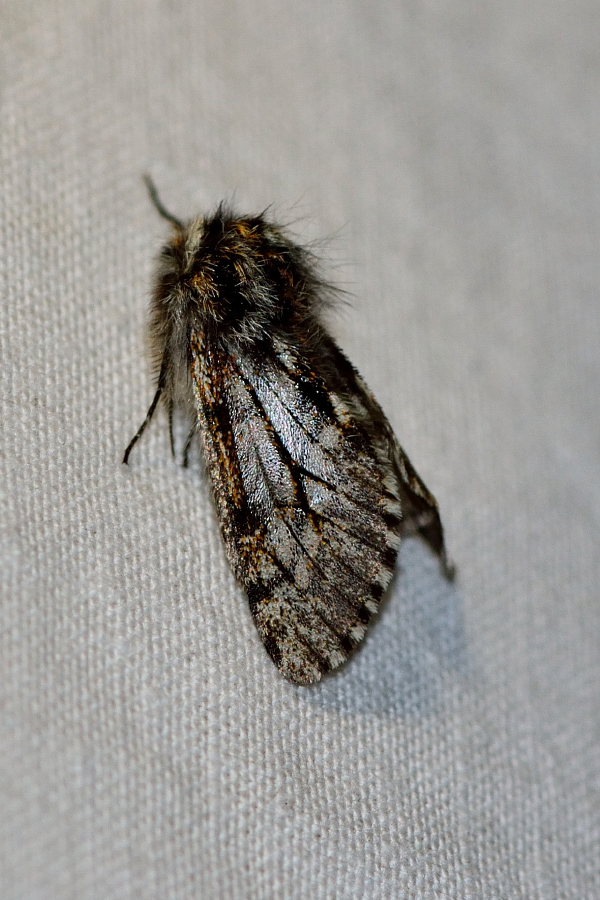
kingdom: Animalia
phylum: Arthropoda
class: Insecta
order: Lepidoptera
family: Geometridae
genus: Lycia
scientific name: Lycia pomonaria
